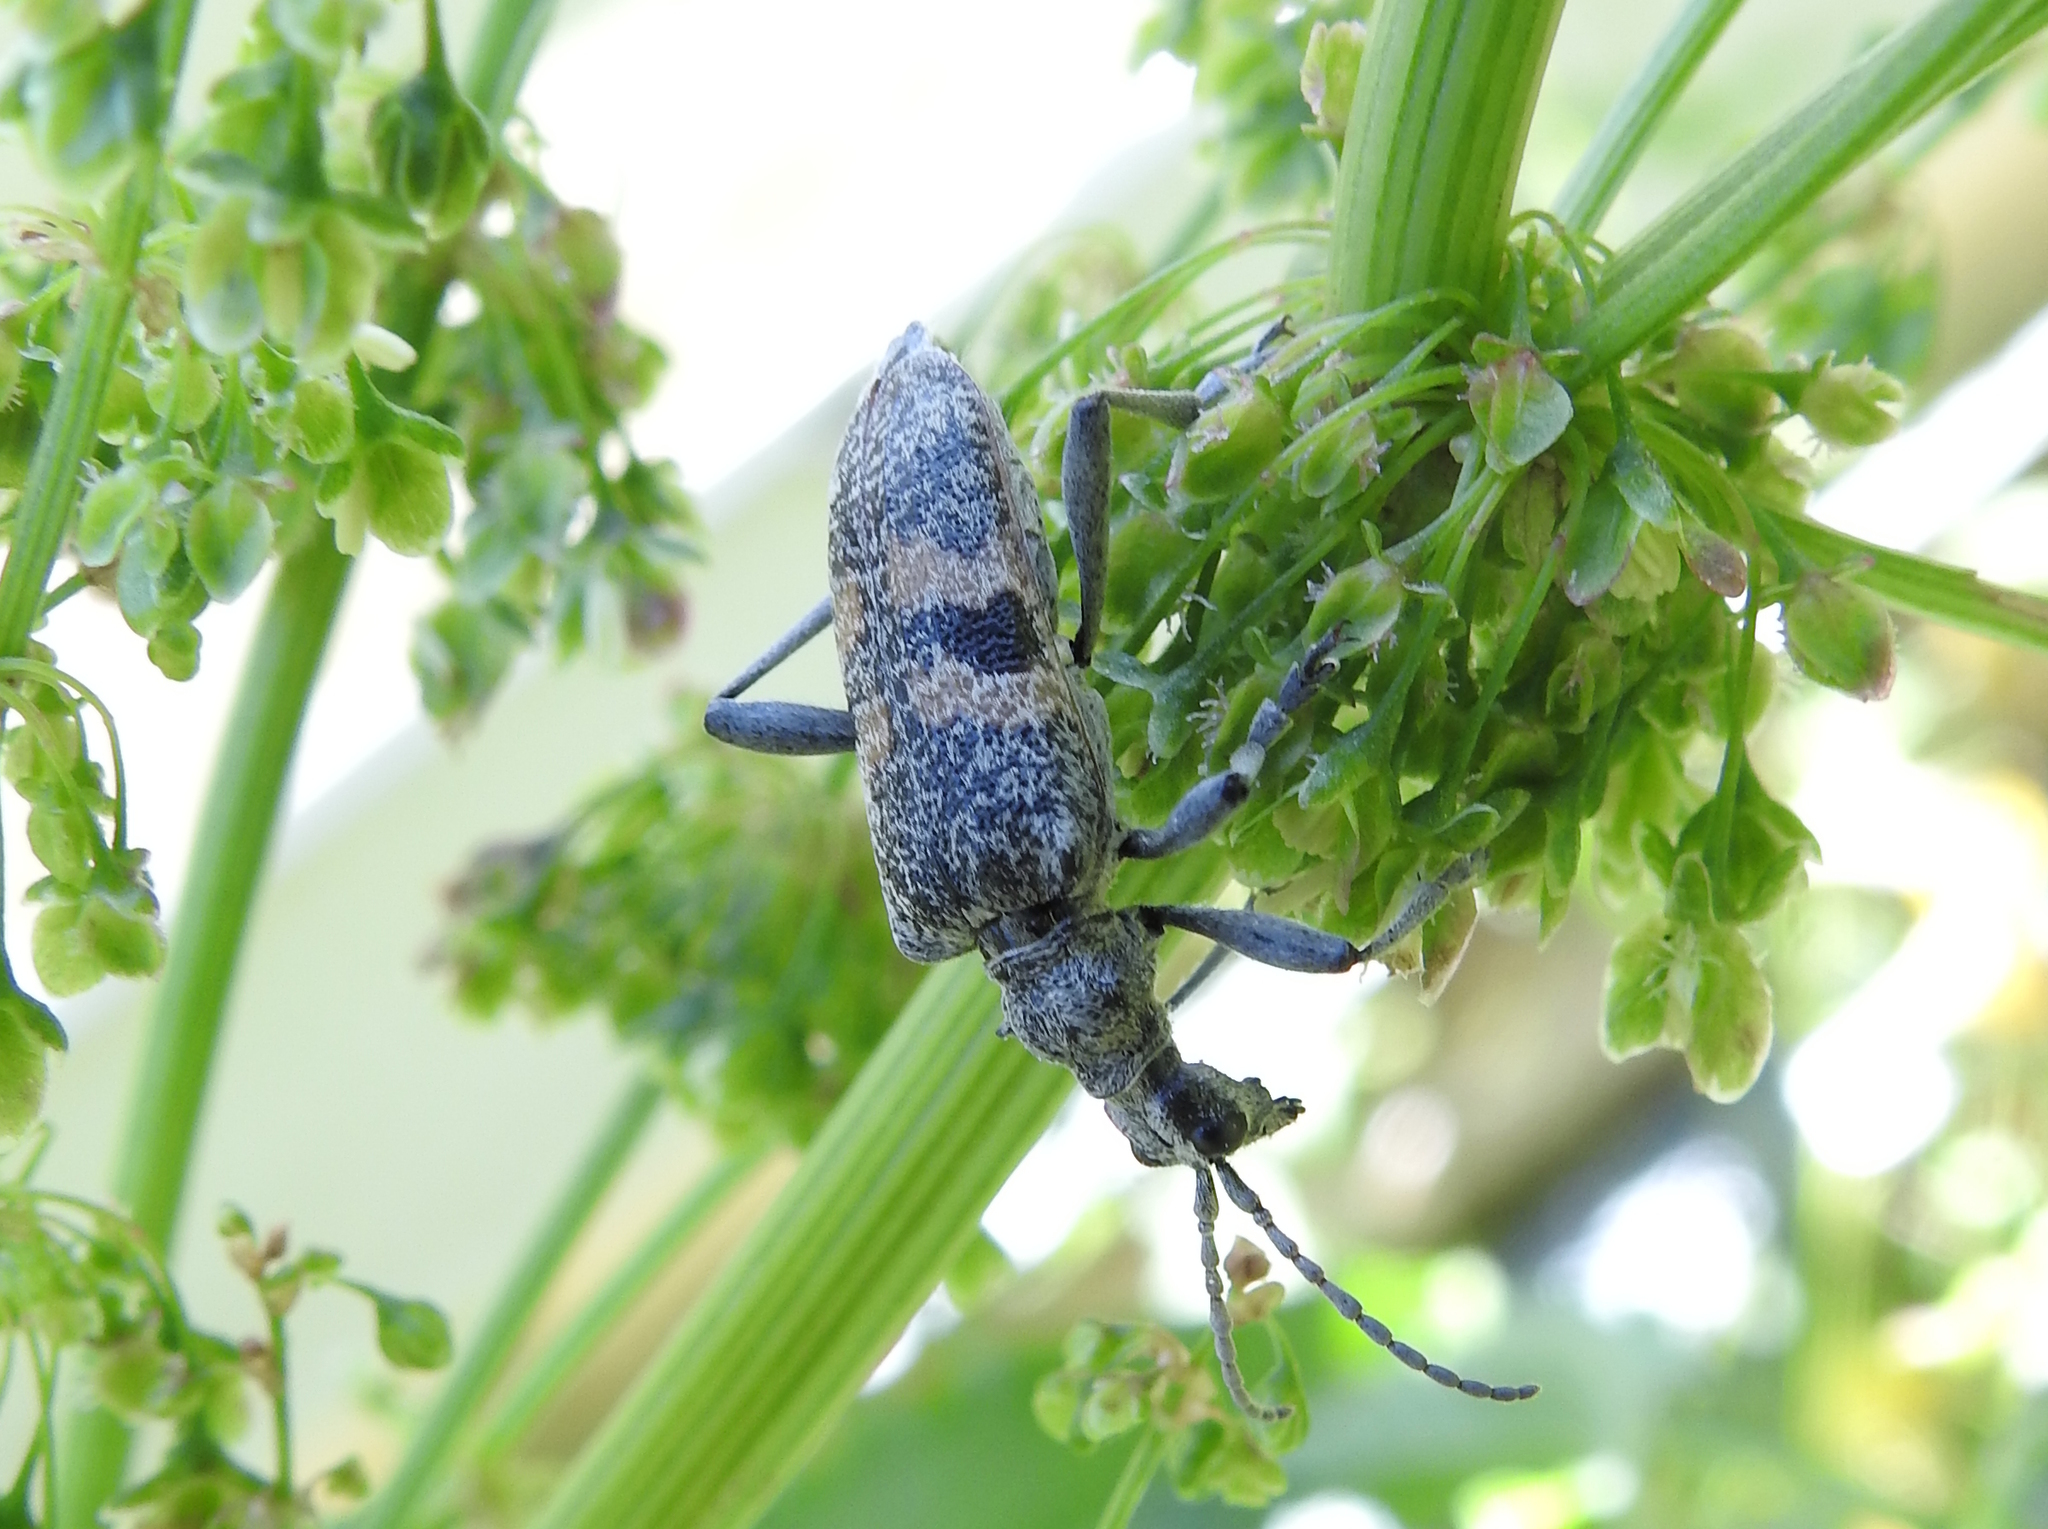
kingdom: Animalia
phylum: Arthropoda
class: Insecta
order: Coleoptera
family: Cerambycidae
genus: Rhagium
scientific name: Rhagium mordax
